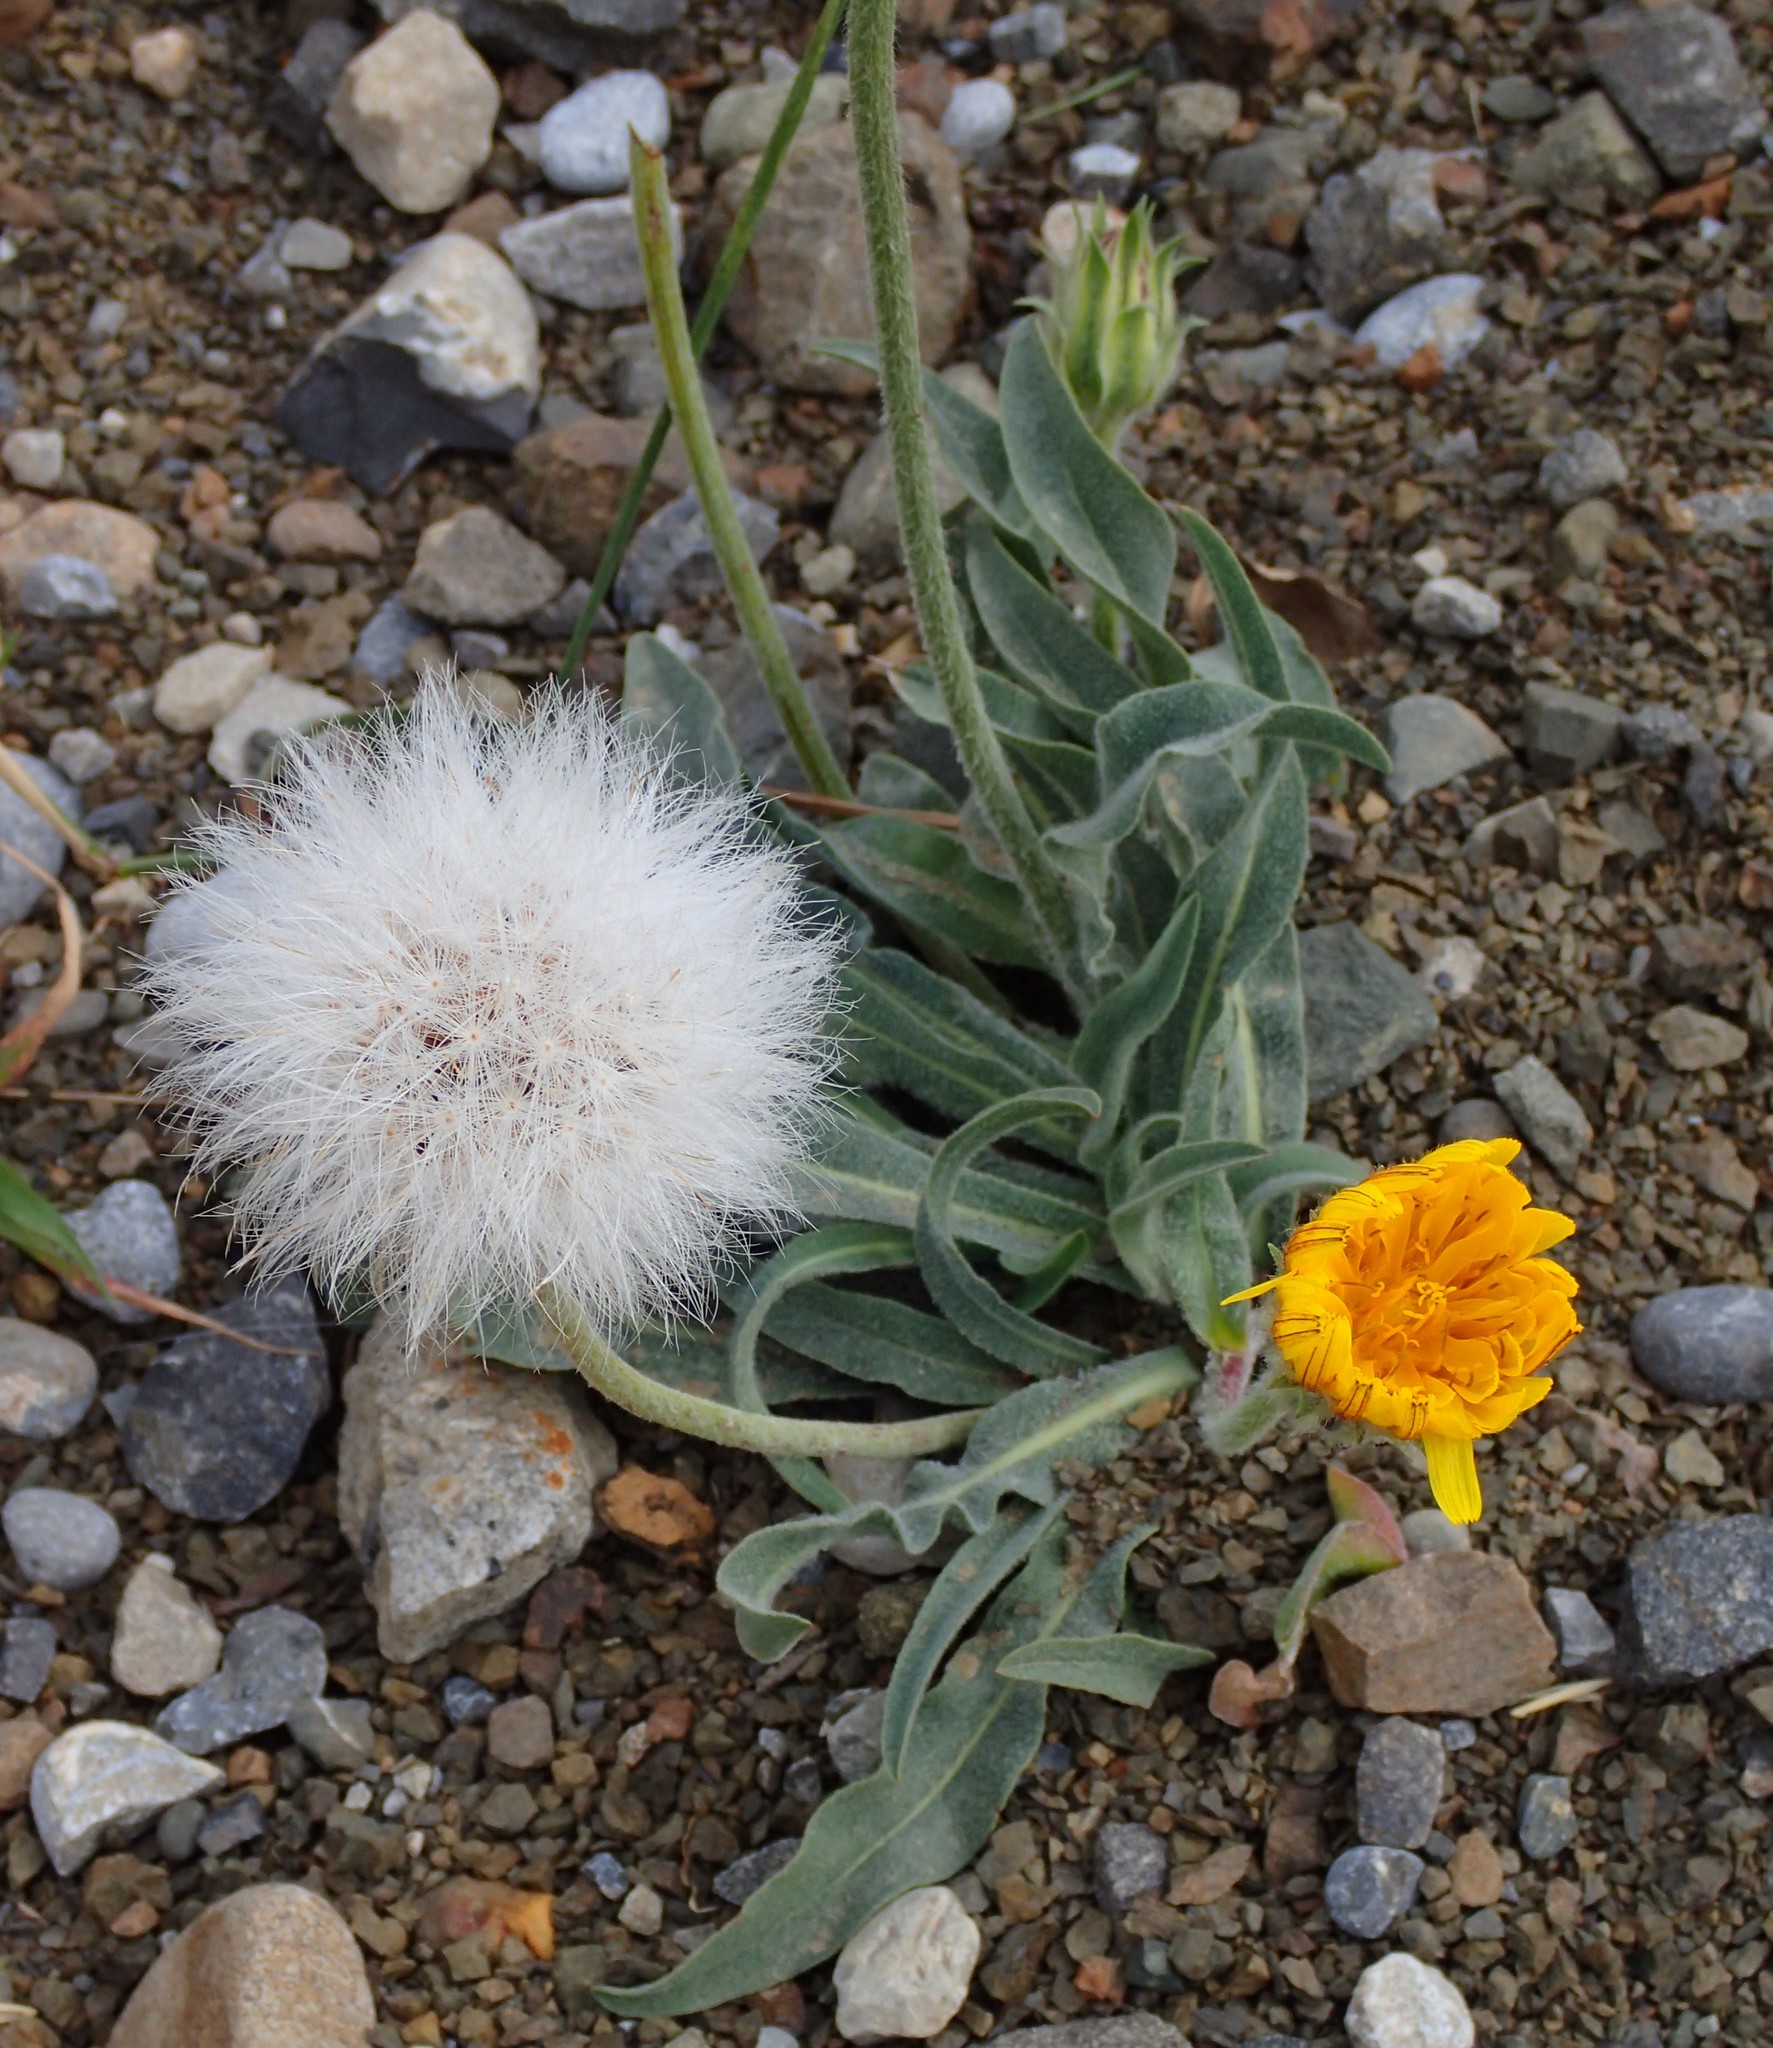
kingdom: Plantae
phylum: Tracheophyta
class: Magnoliopsida
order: Asterales
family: Asteraceae
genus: Agoseris
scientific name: Agoseris glauca
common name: Prairie agoseris
